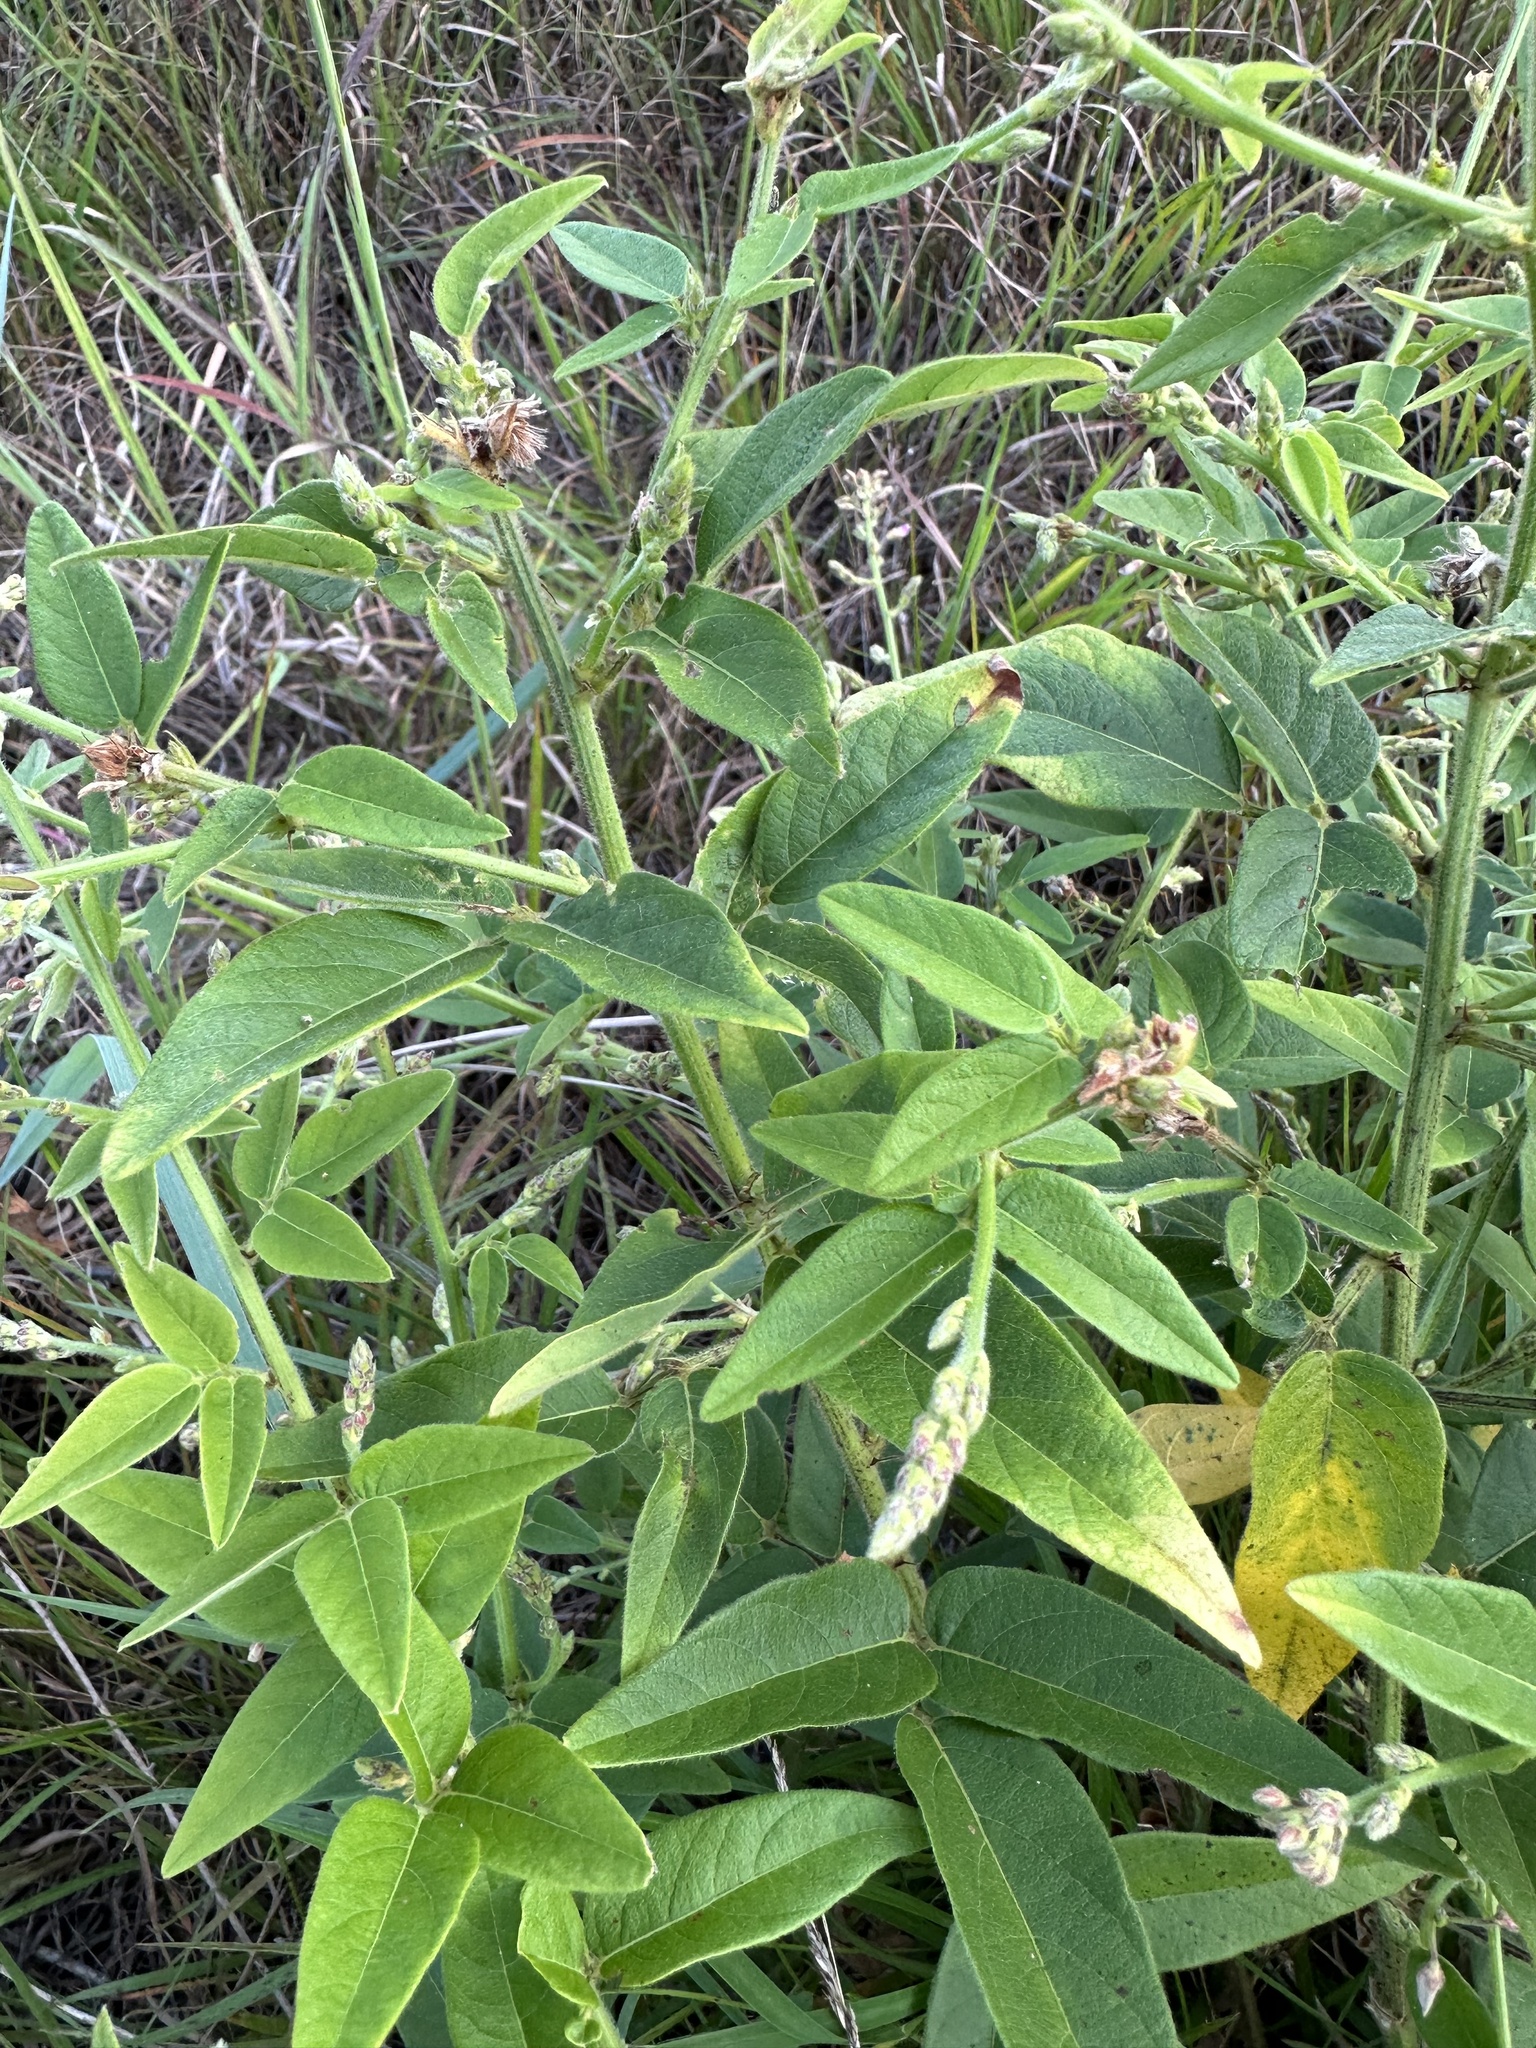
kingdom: Plantae
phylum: Tracheophyta
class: Magnoliopsida
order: Fabales
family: Fabaceae
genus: Desmodium
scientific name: Desmodium perplexum
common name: Perplexed tick trefoil
